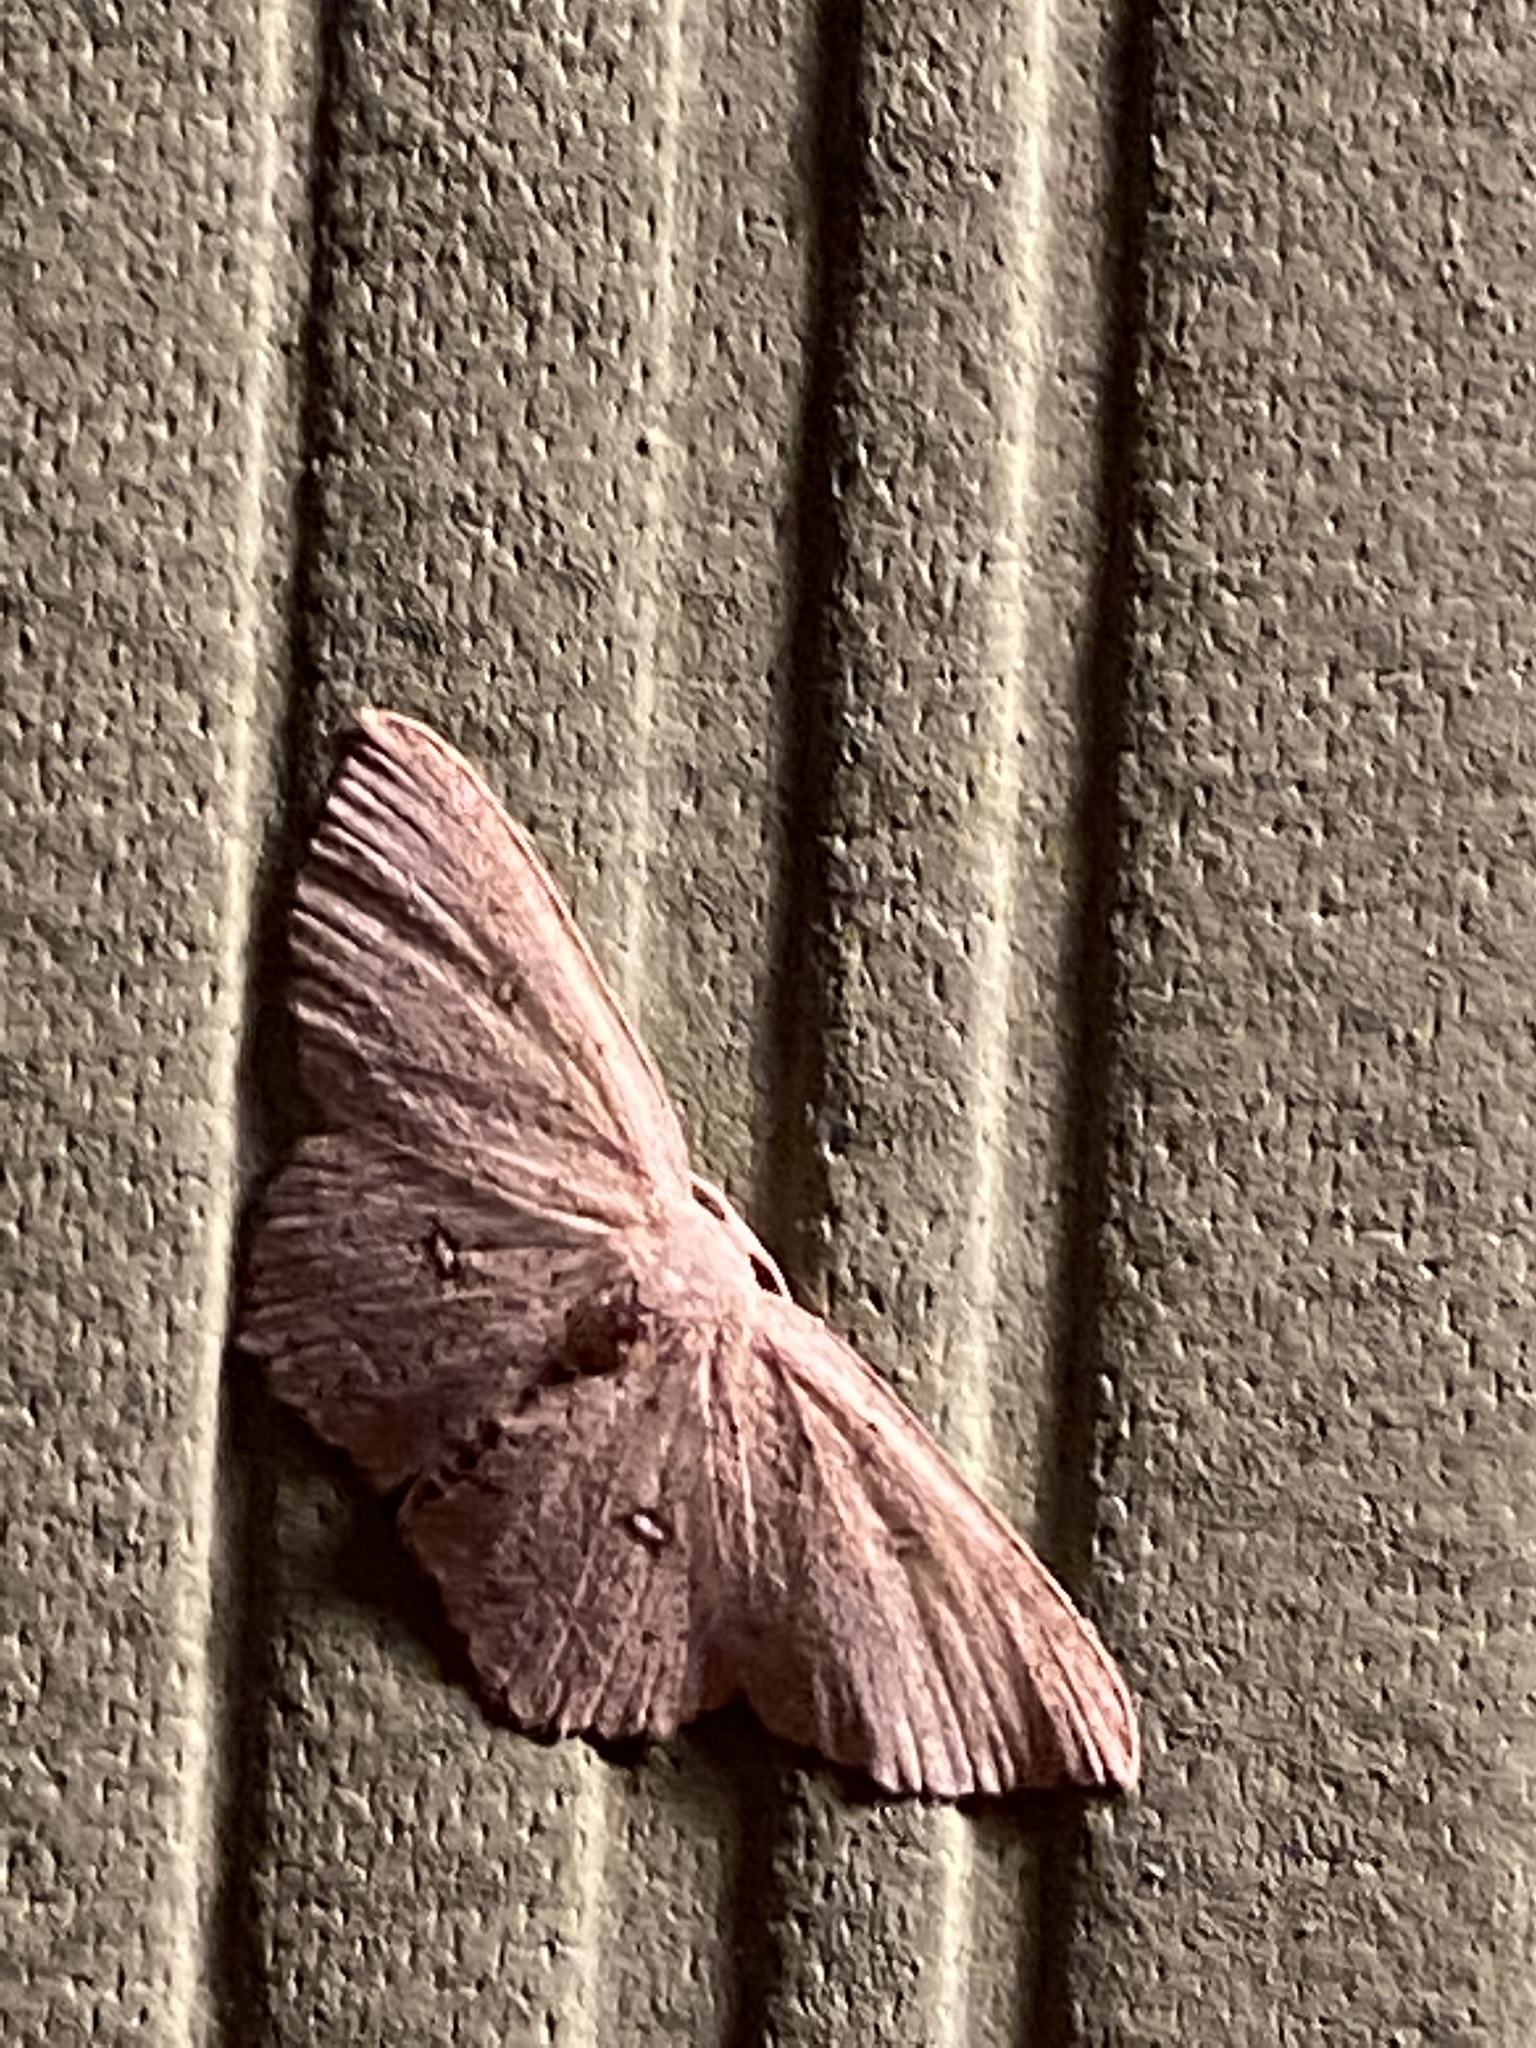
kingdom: Animalia
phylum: Arthropoda
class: Insecta
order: Lepidoptera
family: Geometridae
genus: Cyclophora
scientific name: Cyclophora pendulinaria
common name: Sweet fern geometer
